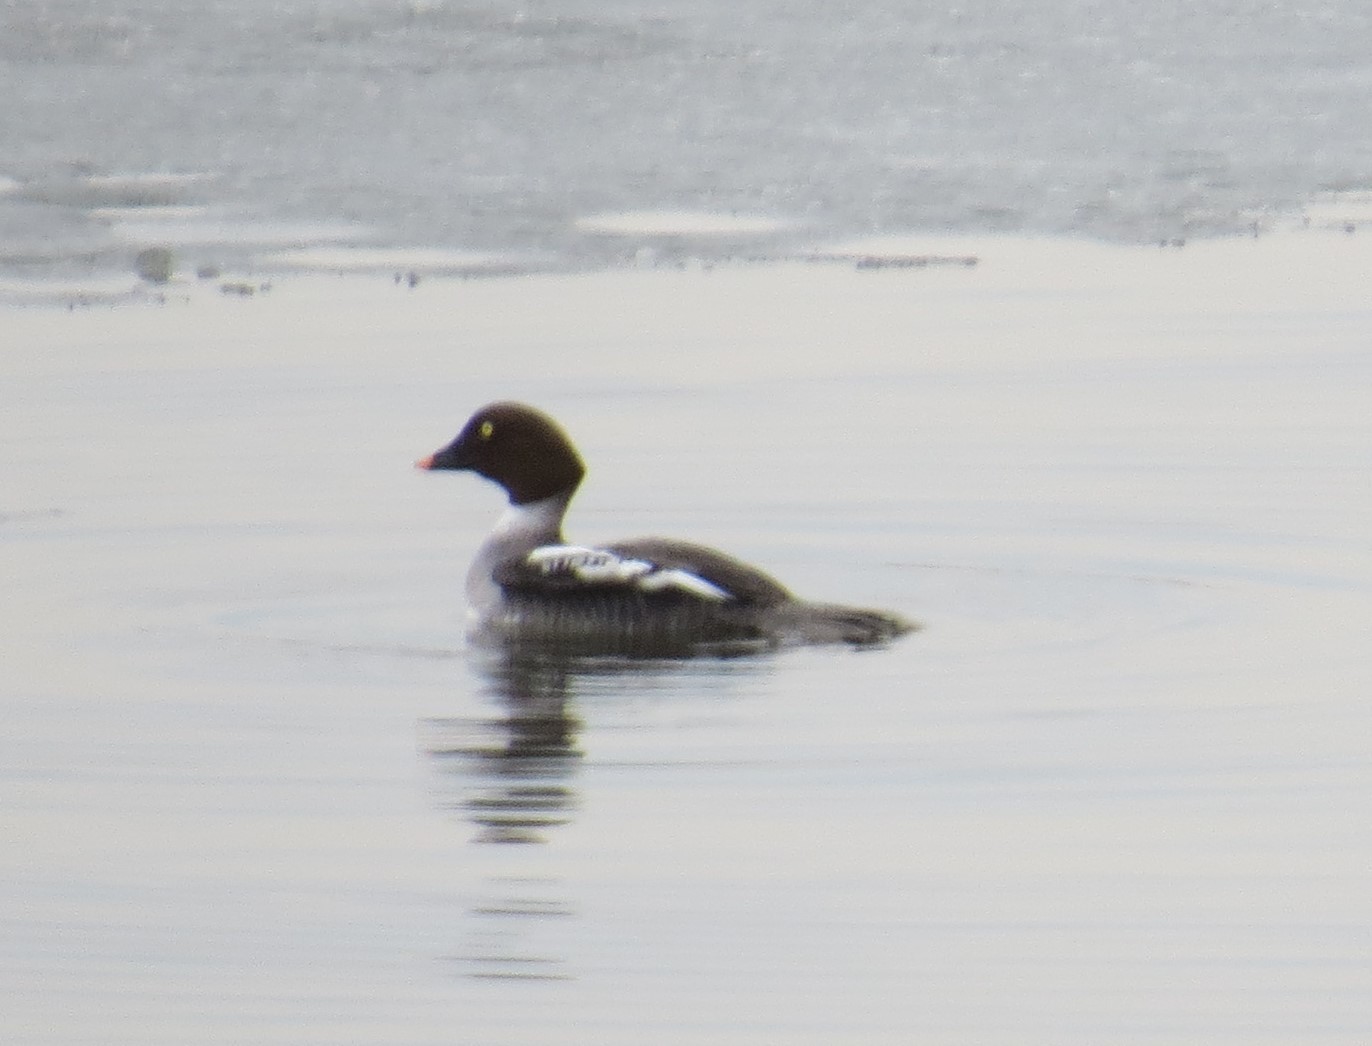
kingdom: Animalia
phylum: Chordata
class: Aves
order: Anseriformes
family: Anatidae
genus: Bucephala
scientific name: Bucephala clangula
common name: Common goldeneye
